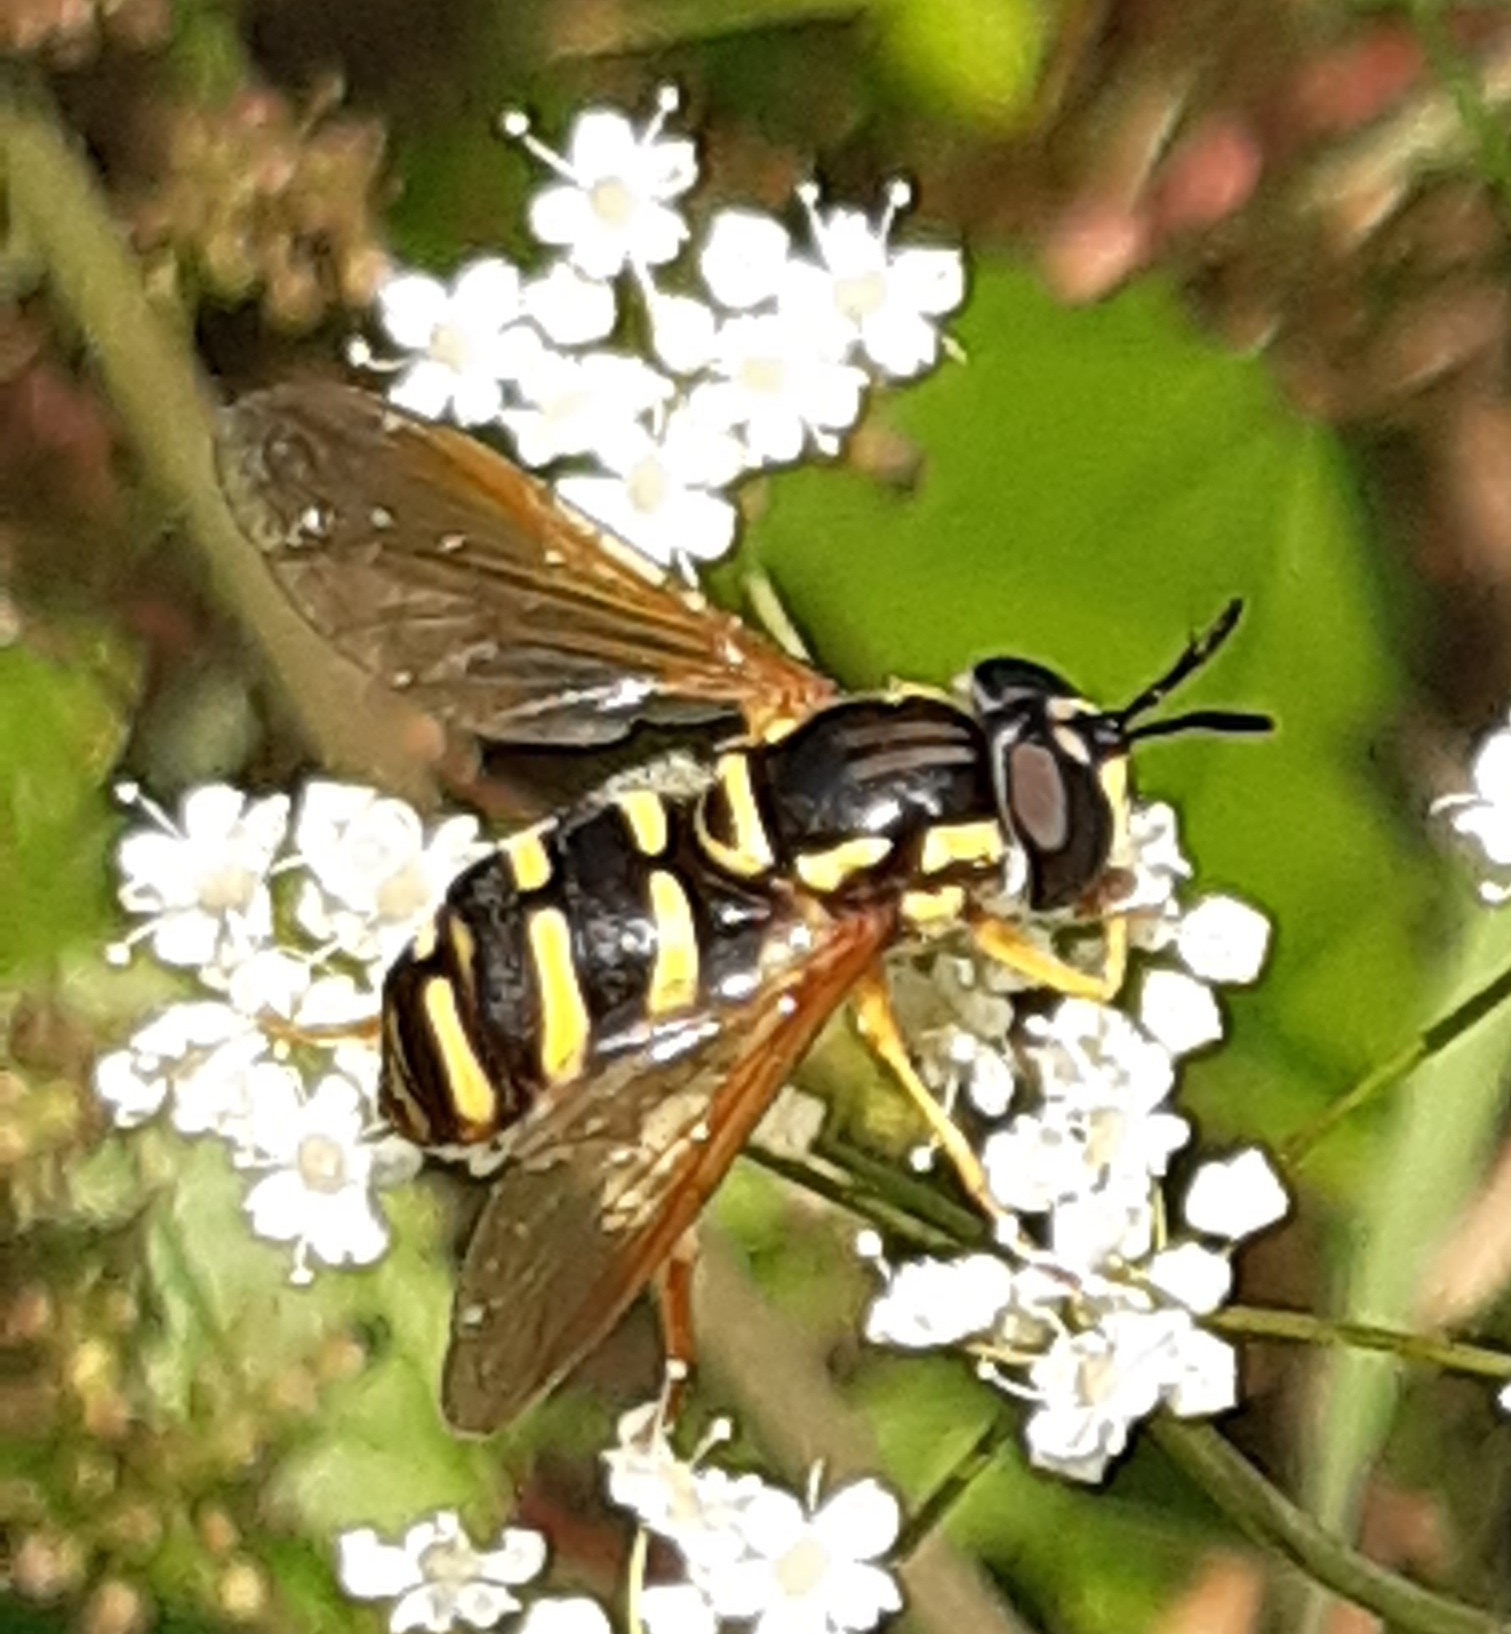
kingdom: Animalia
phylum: Arthropoda
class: Insecta
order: Diptera
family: Syrphidae
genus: Chrysotoxum
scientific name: Chrysotoxum festivum
